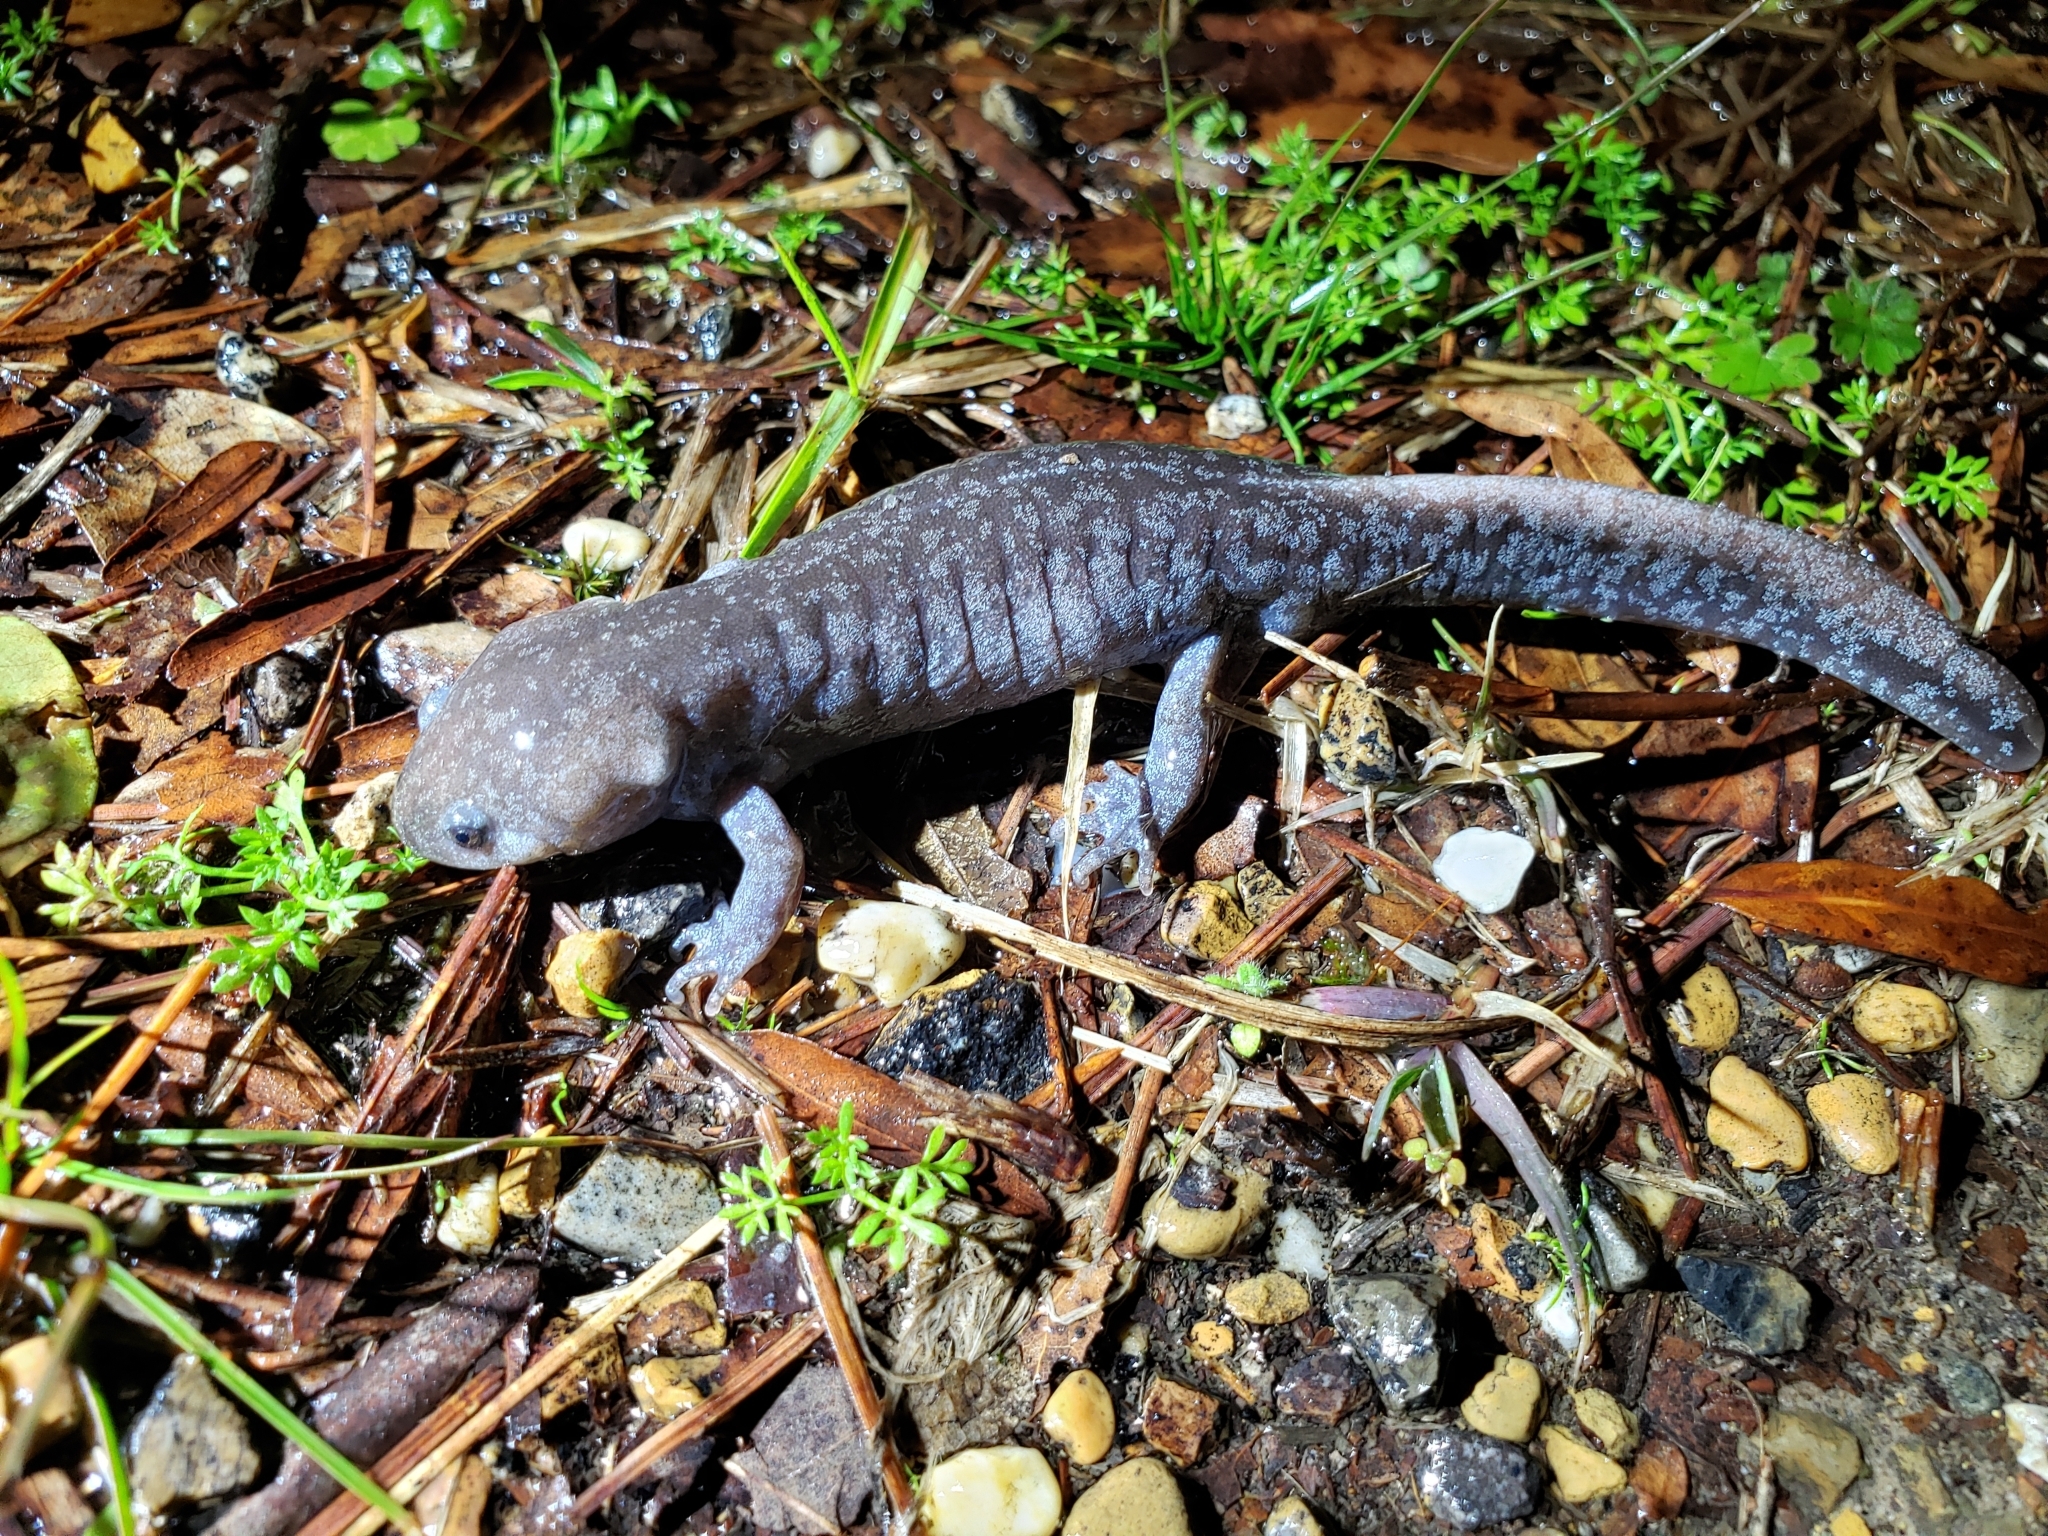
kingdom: Animalia
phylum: Chordata
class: Amphibia
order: Caudata
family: Ambystomatidae
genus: Ambystoma
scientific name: Ambystoma talpoideum
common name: Mole salamander
